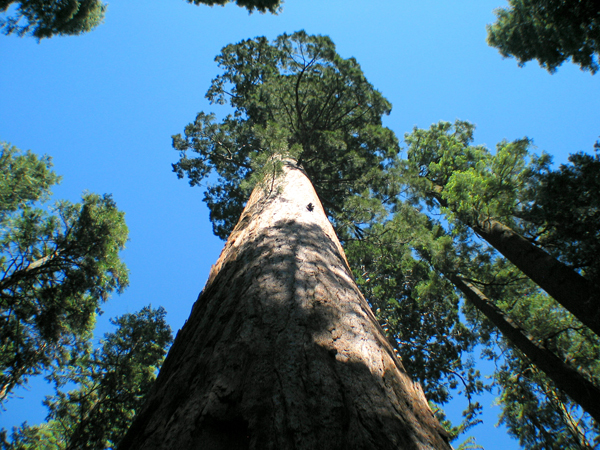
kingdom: Plantae
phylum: Tracheophyta
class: Pinopsida
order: Pinales
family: Cupressaceae
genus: Sequoiadendron
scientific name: Sequoiadendron giganteum
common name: Wellingtonia
